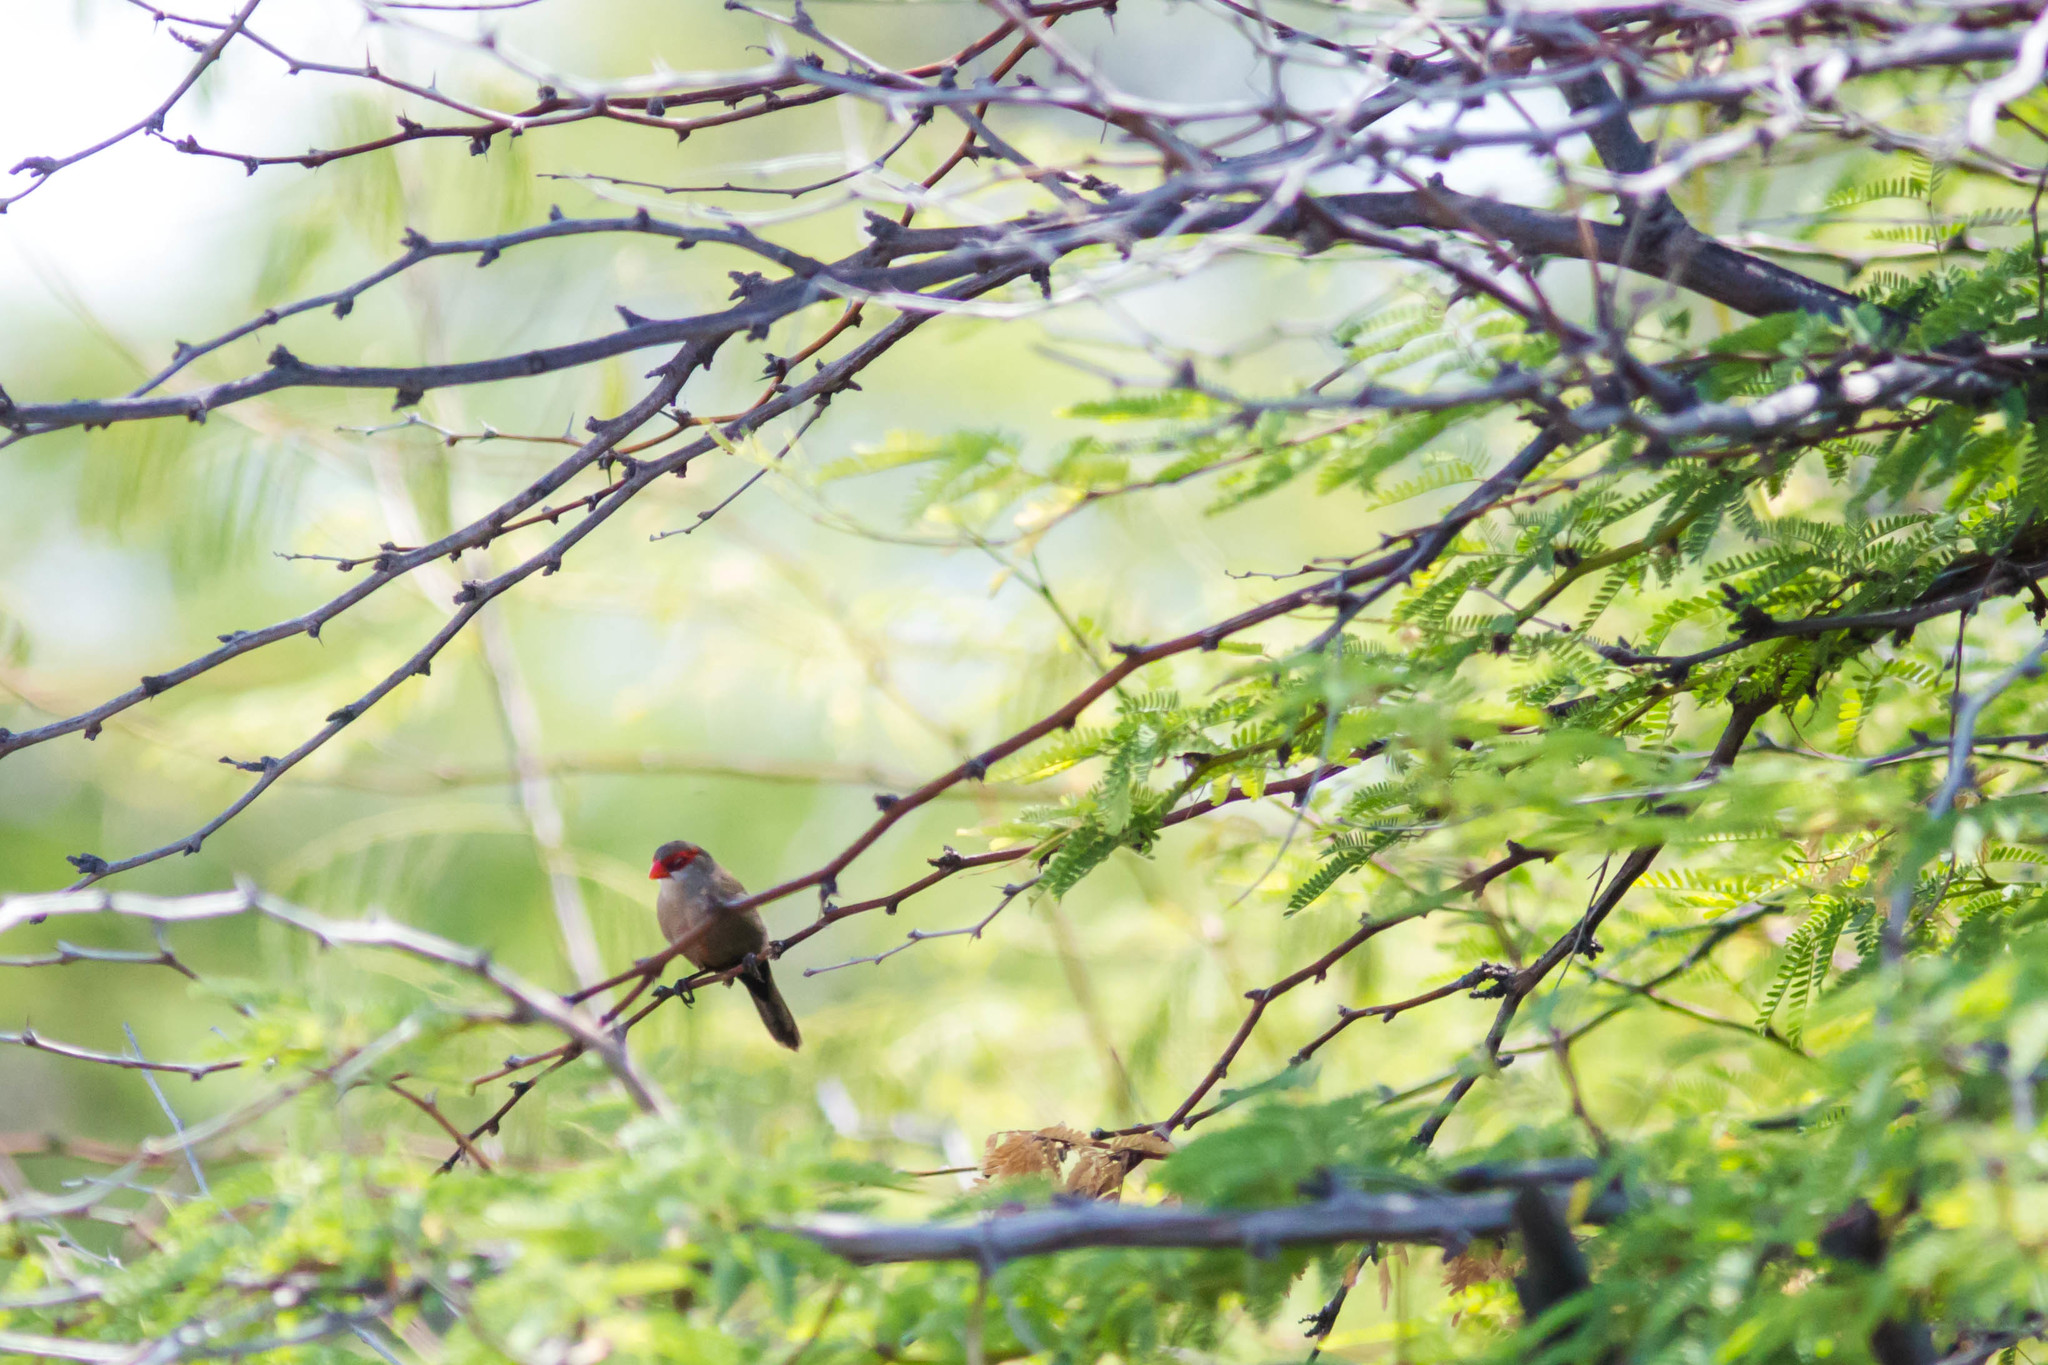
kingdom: Animalia
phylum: Chordata
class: Aves
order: Passeriformes
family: Estrildidae
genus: Estrilda
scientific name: Estrilda astrild
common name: Common waxbill
